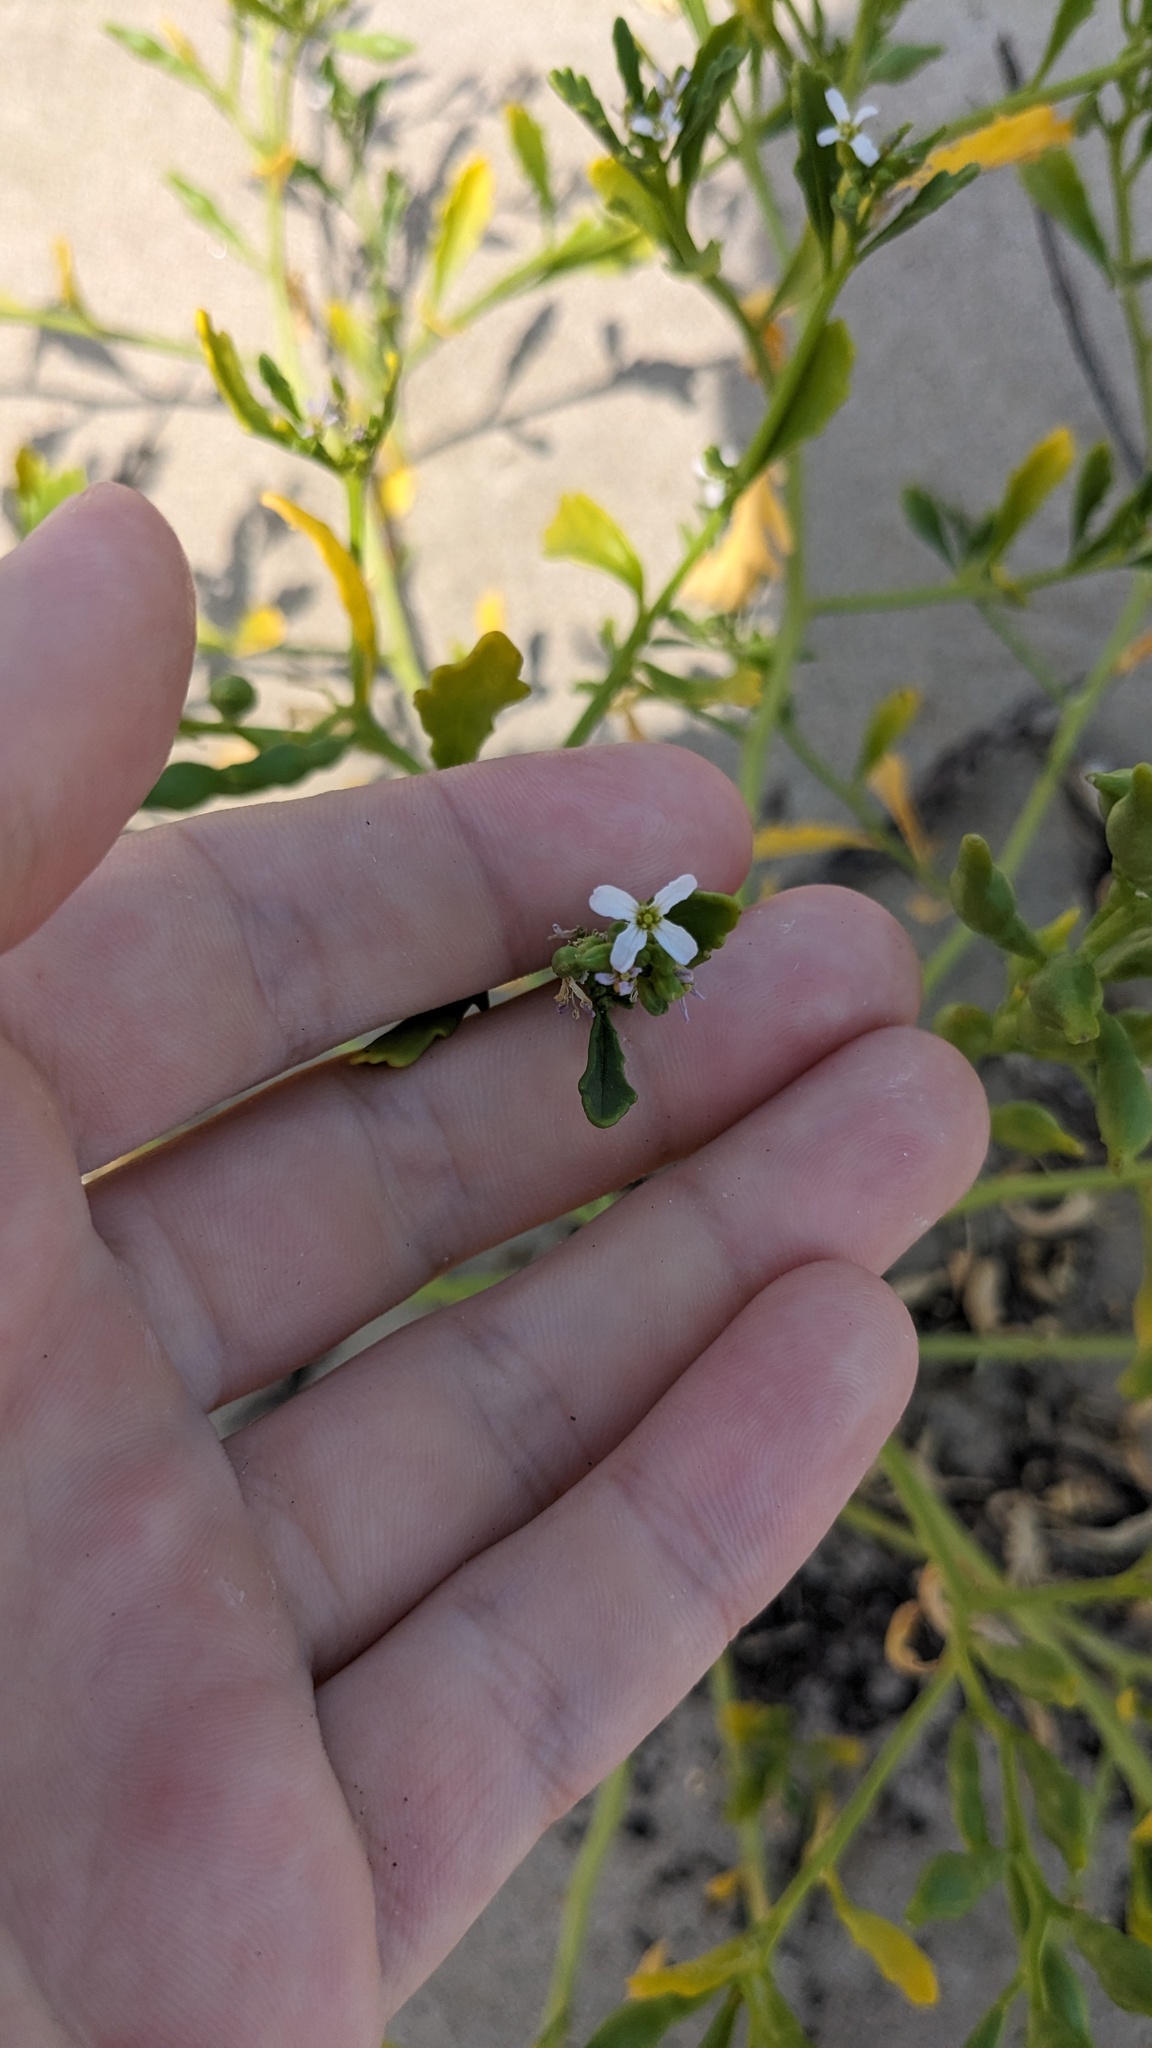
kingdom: Plantae
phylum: Tracheophyta
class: Magnoliopsida
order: Brassicales
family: Brassicaceae
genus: Cakile
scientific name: Cakile edentula
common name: American sea rocket
